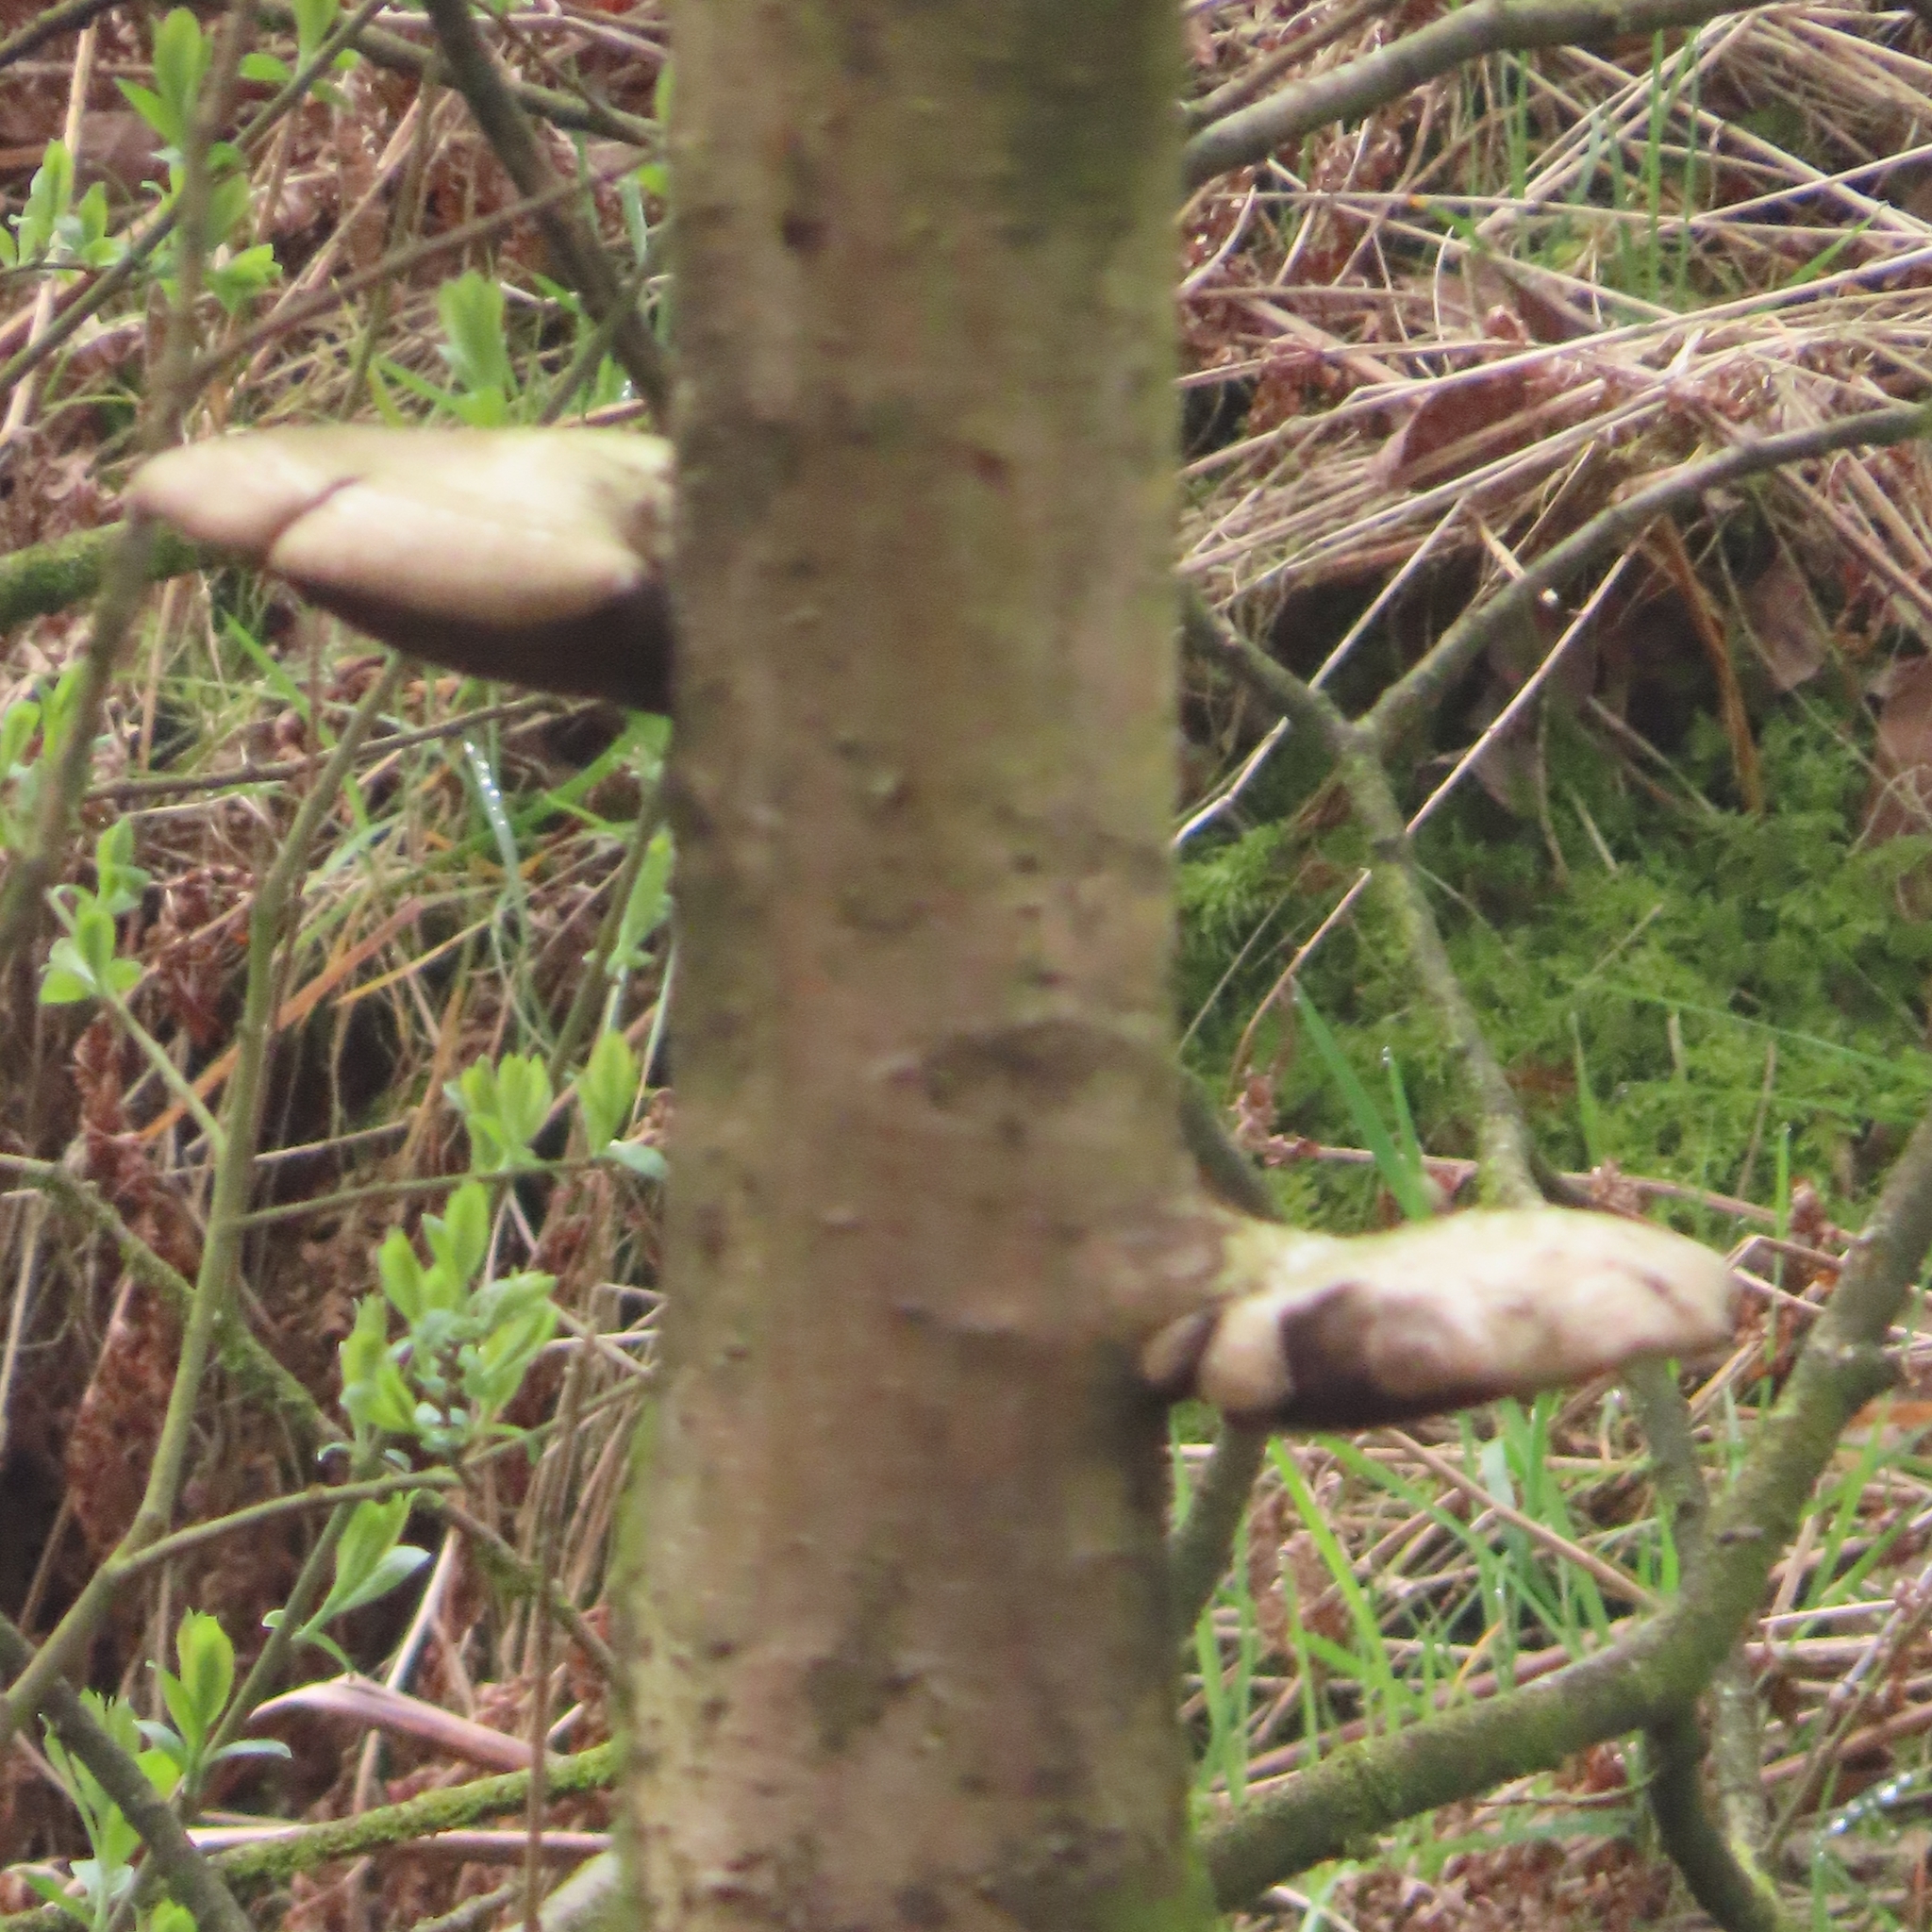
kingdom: Fungi
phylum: Basidiomycota
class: Agaricomycetes
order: Polyporales
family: Fomitopsidaceae
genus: Fomitopsis
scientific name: Fomitopsis betulina
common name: Birch polypore
